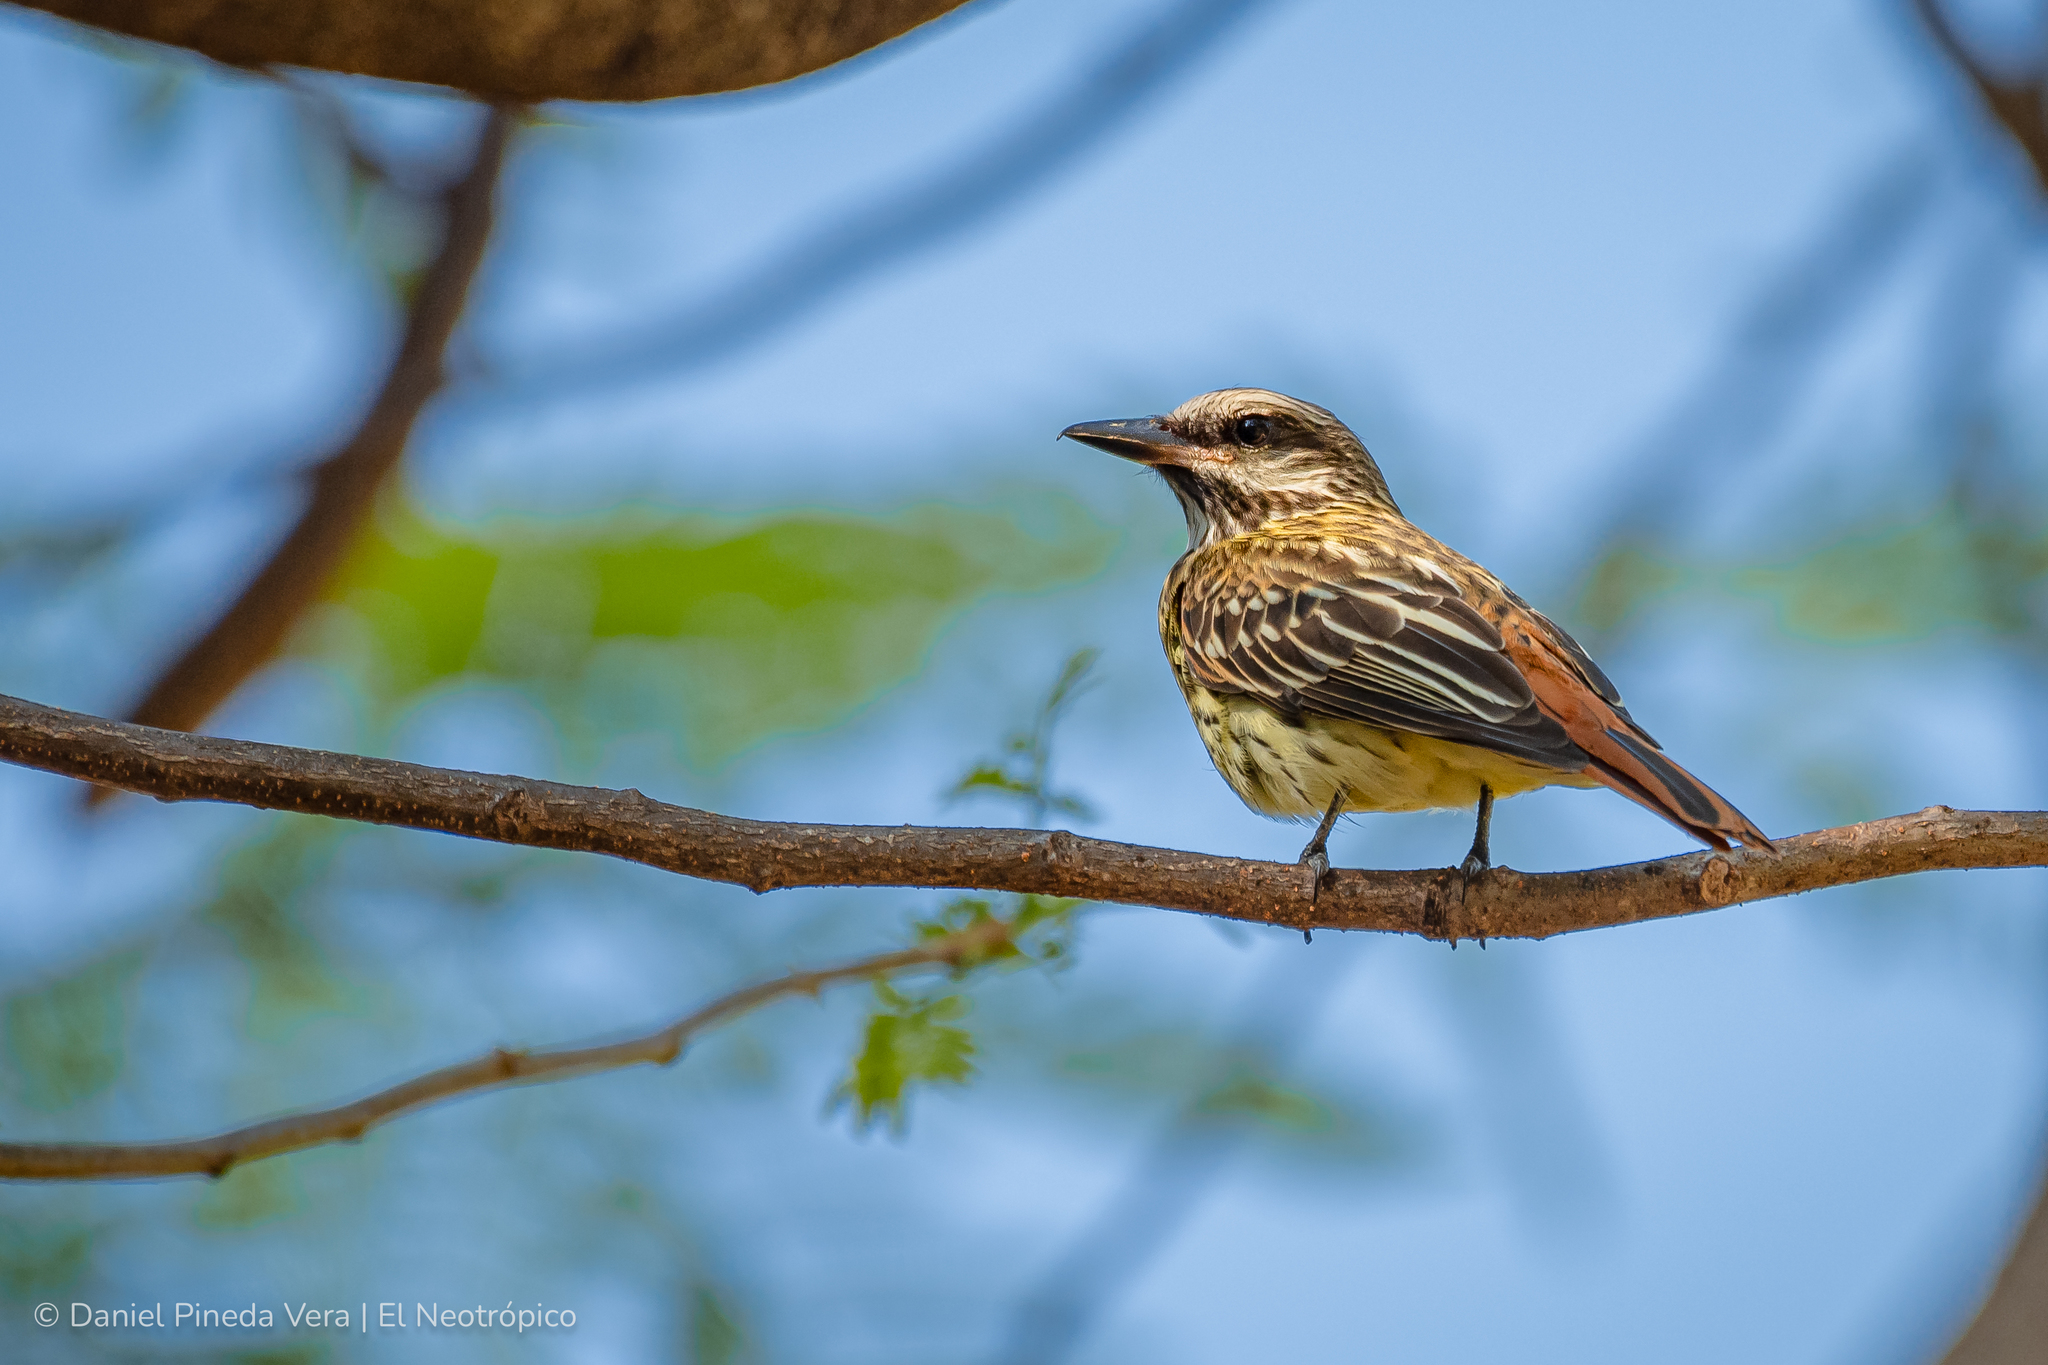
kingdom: Animalia
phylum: Chordata
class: Aves
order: Passeriformes
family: Tyrannidae
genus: Myiodynastes
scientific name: Myiodynastes luteiventris
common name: Sulphur-bellied flycatcher
